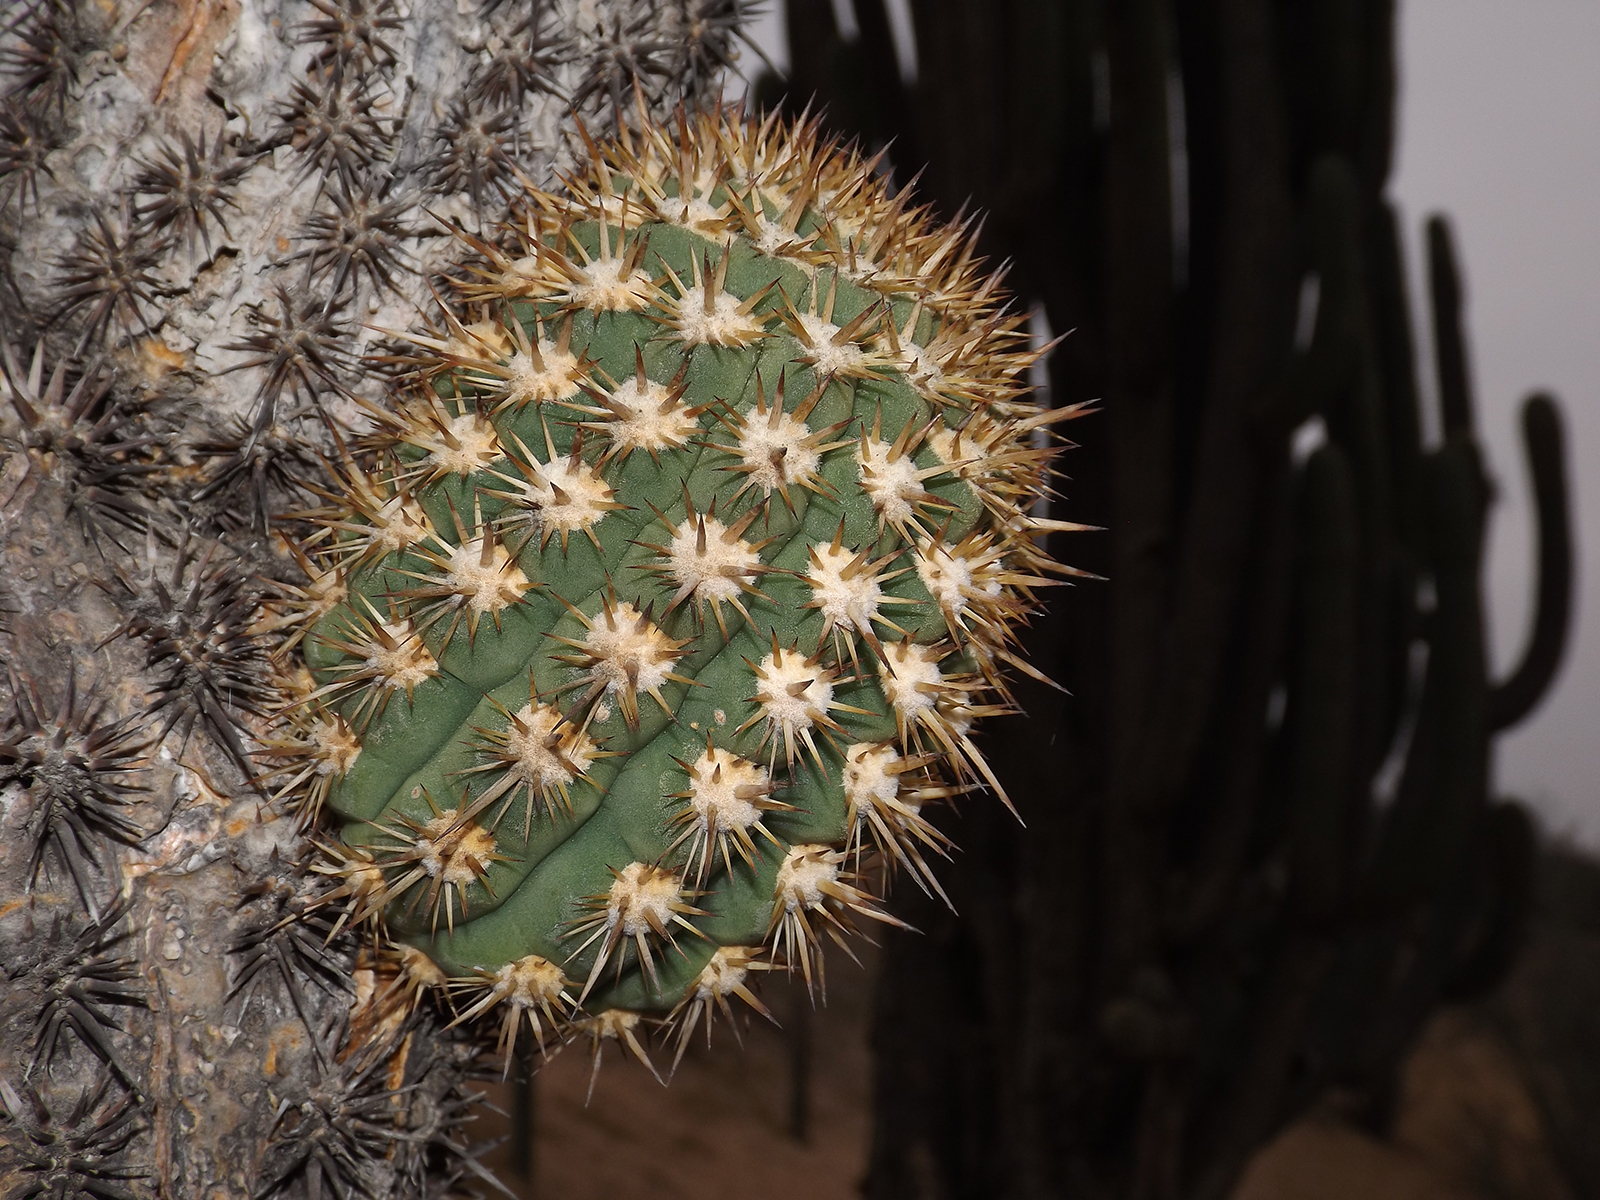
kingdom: Plantae
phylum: Tracheophyta
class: Magnoliopsida
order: Caryophyllales
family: Cactaceae
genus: Leucostele
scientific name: Leucostele chiloensis
